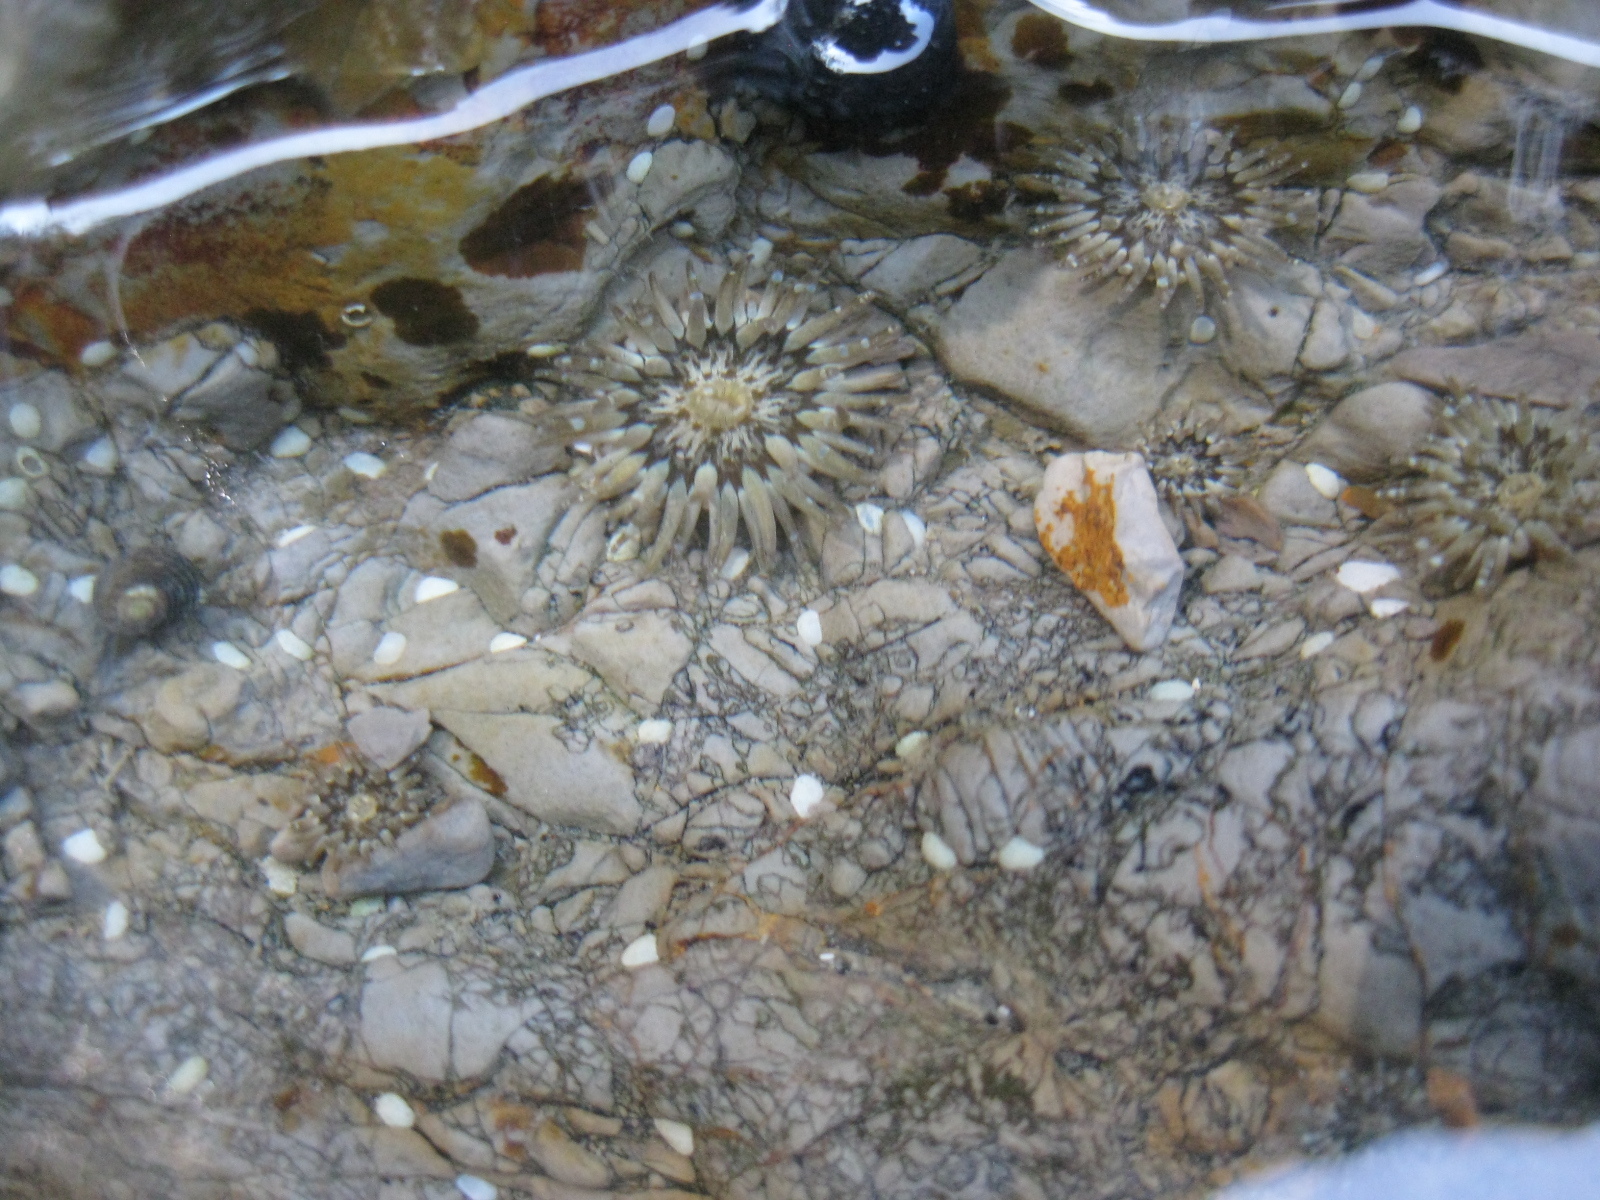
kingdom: Animalia
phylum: Cnidaria
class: Anthozoa
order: Actiniaria
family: Actiniidae
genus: Anthopleura
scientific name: Anthopleura hermaphroditica
